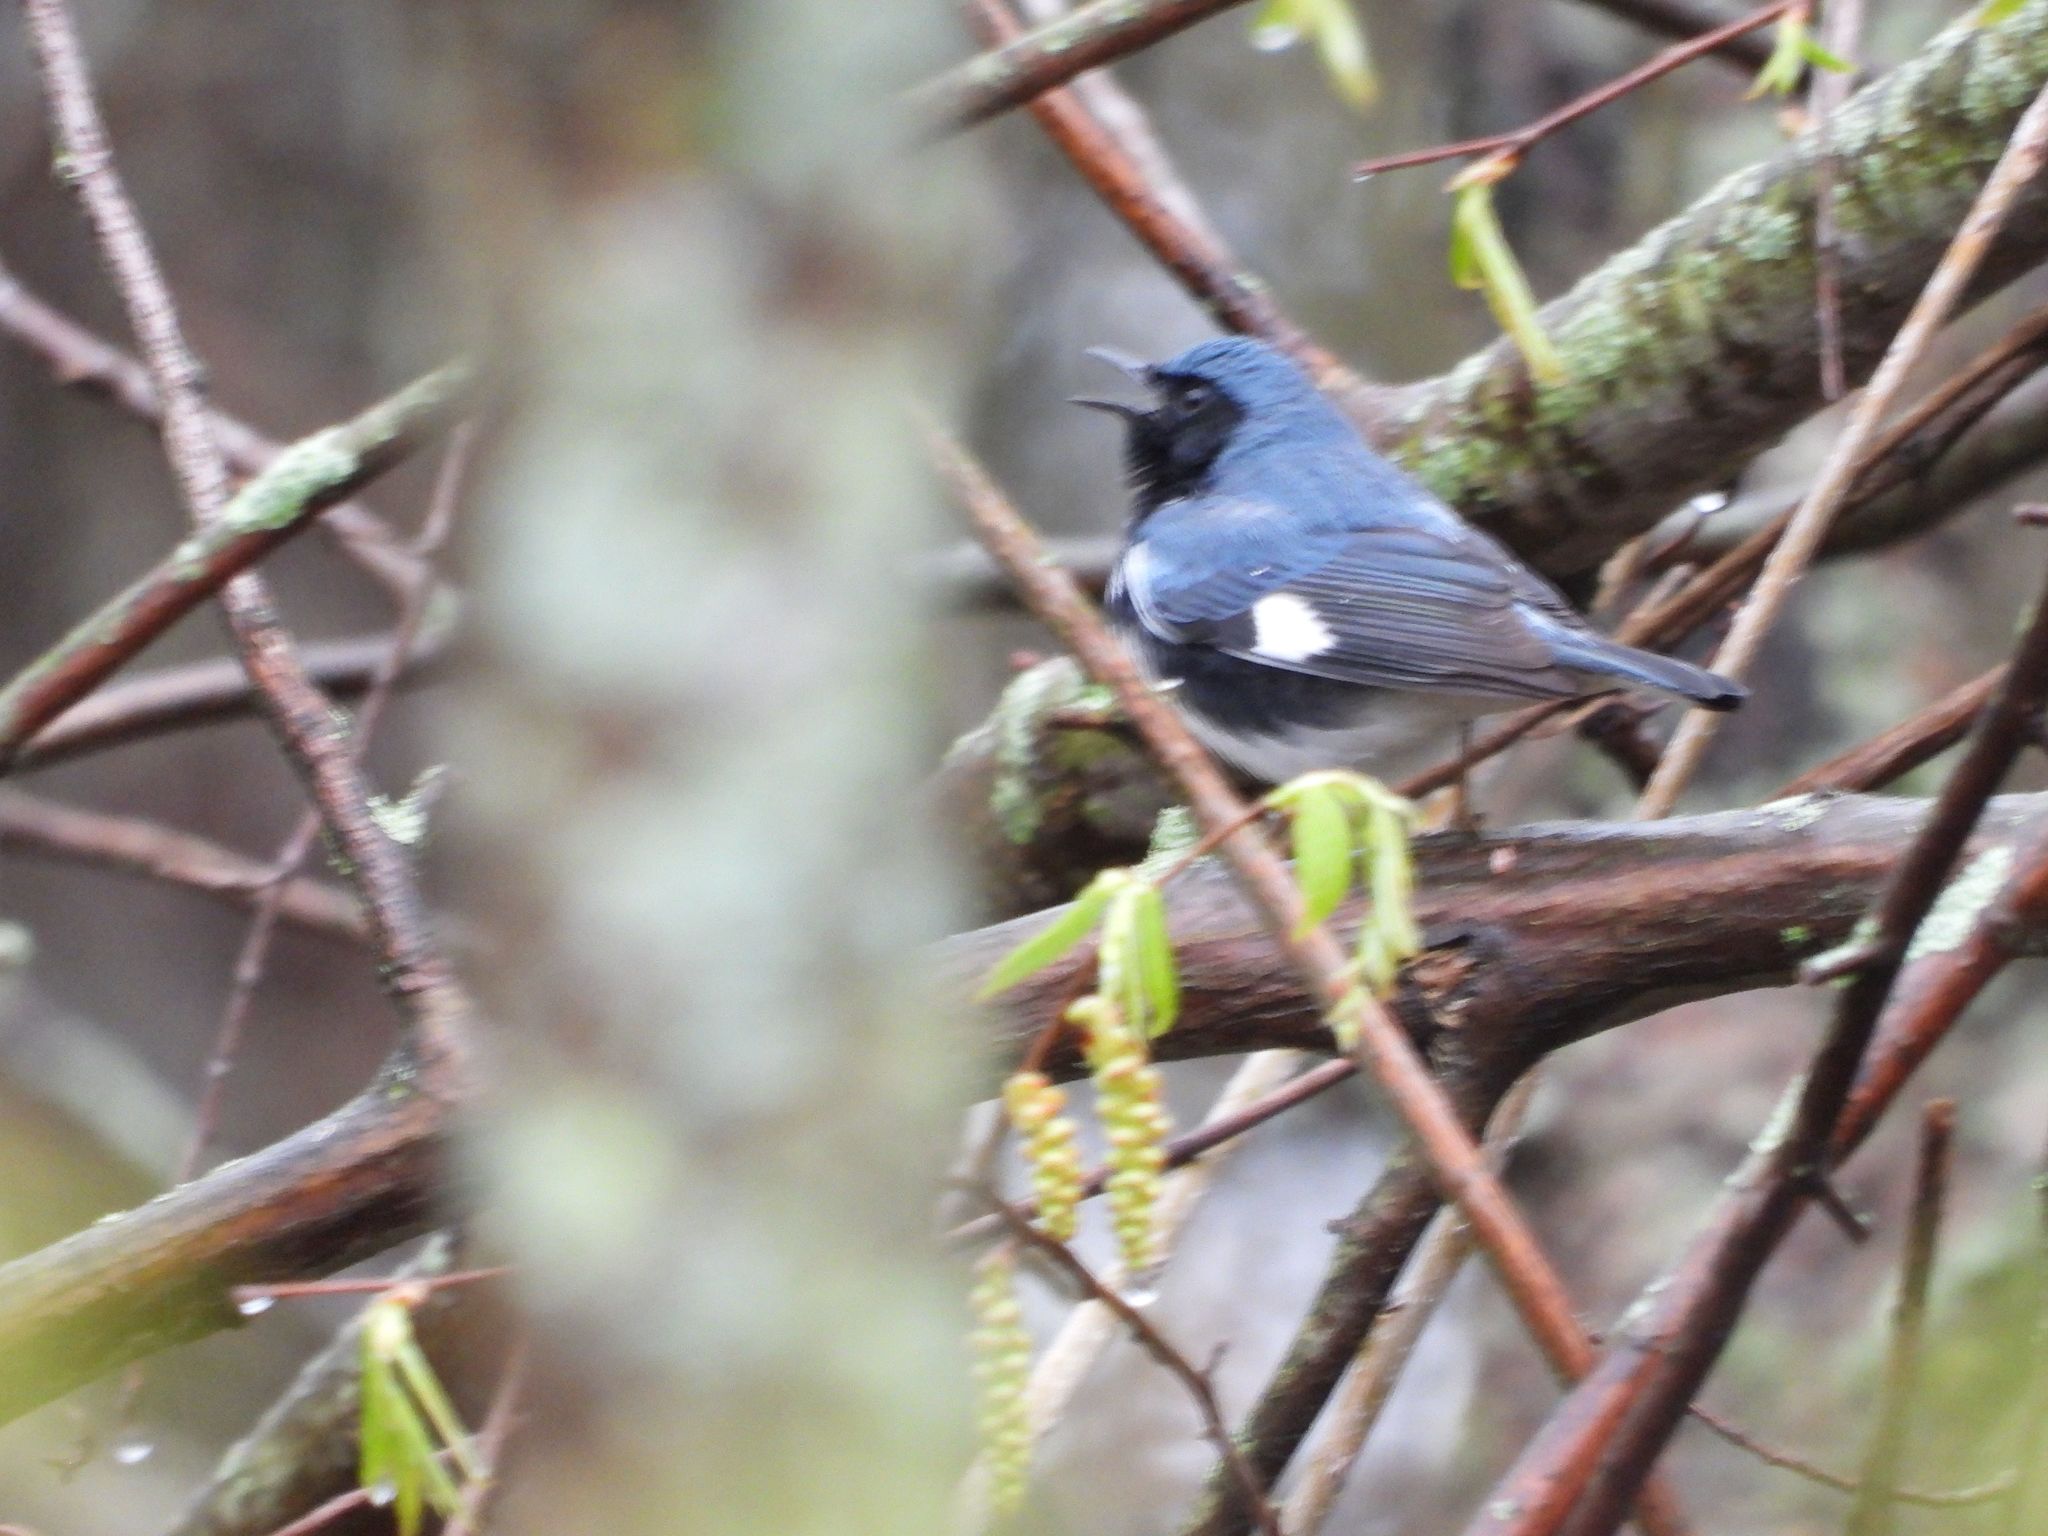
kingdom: Animalia
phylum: Chordata
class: Aves
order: Passeriformes
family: Parulidae
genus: Setophaga
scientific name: Setophaga caerulescens
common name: Black-throated blue warbler
